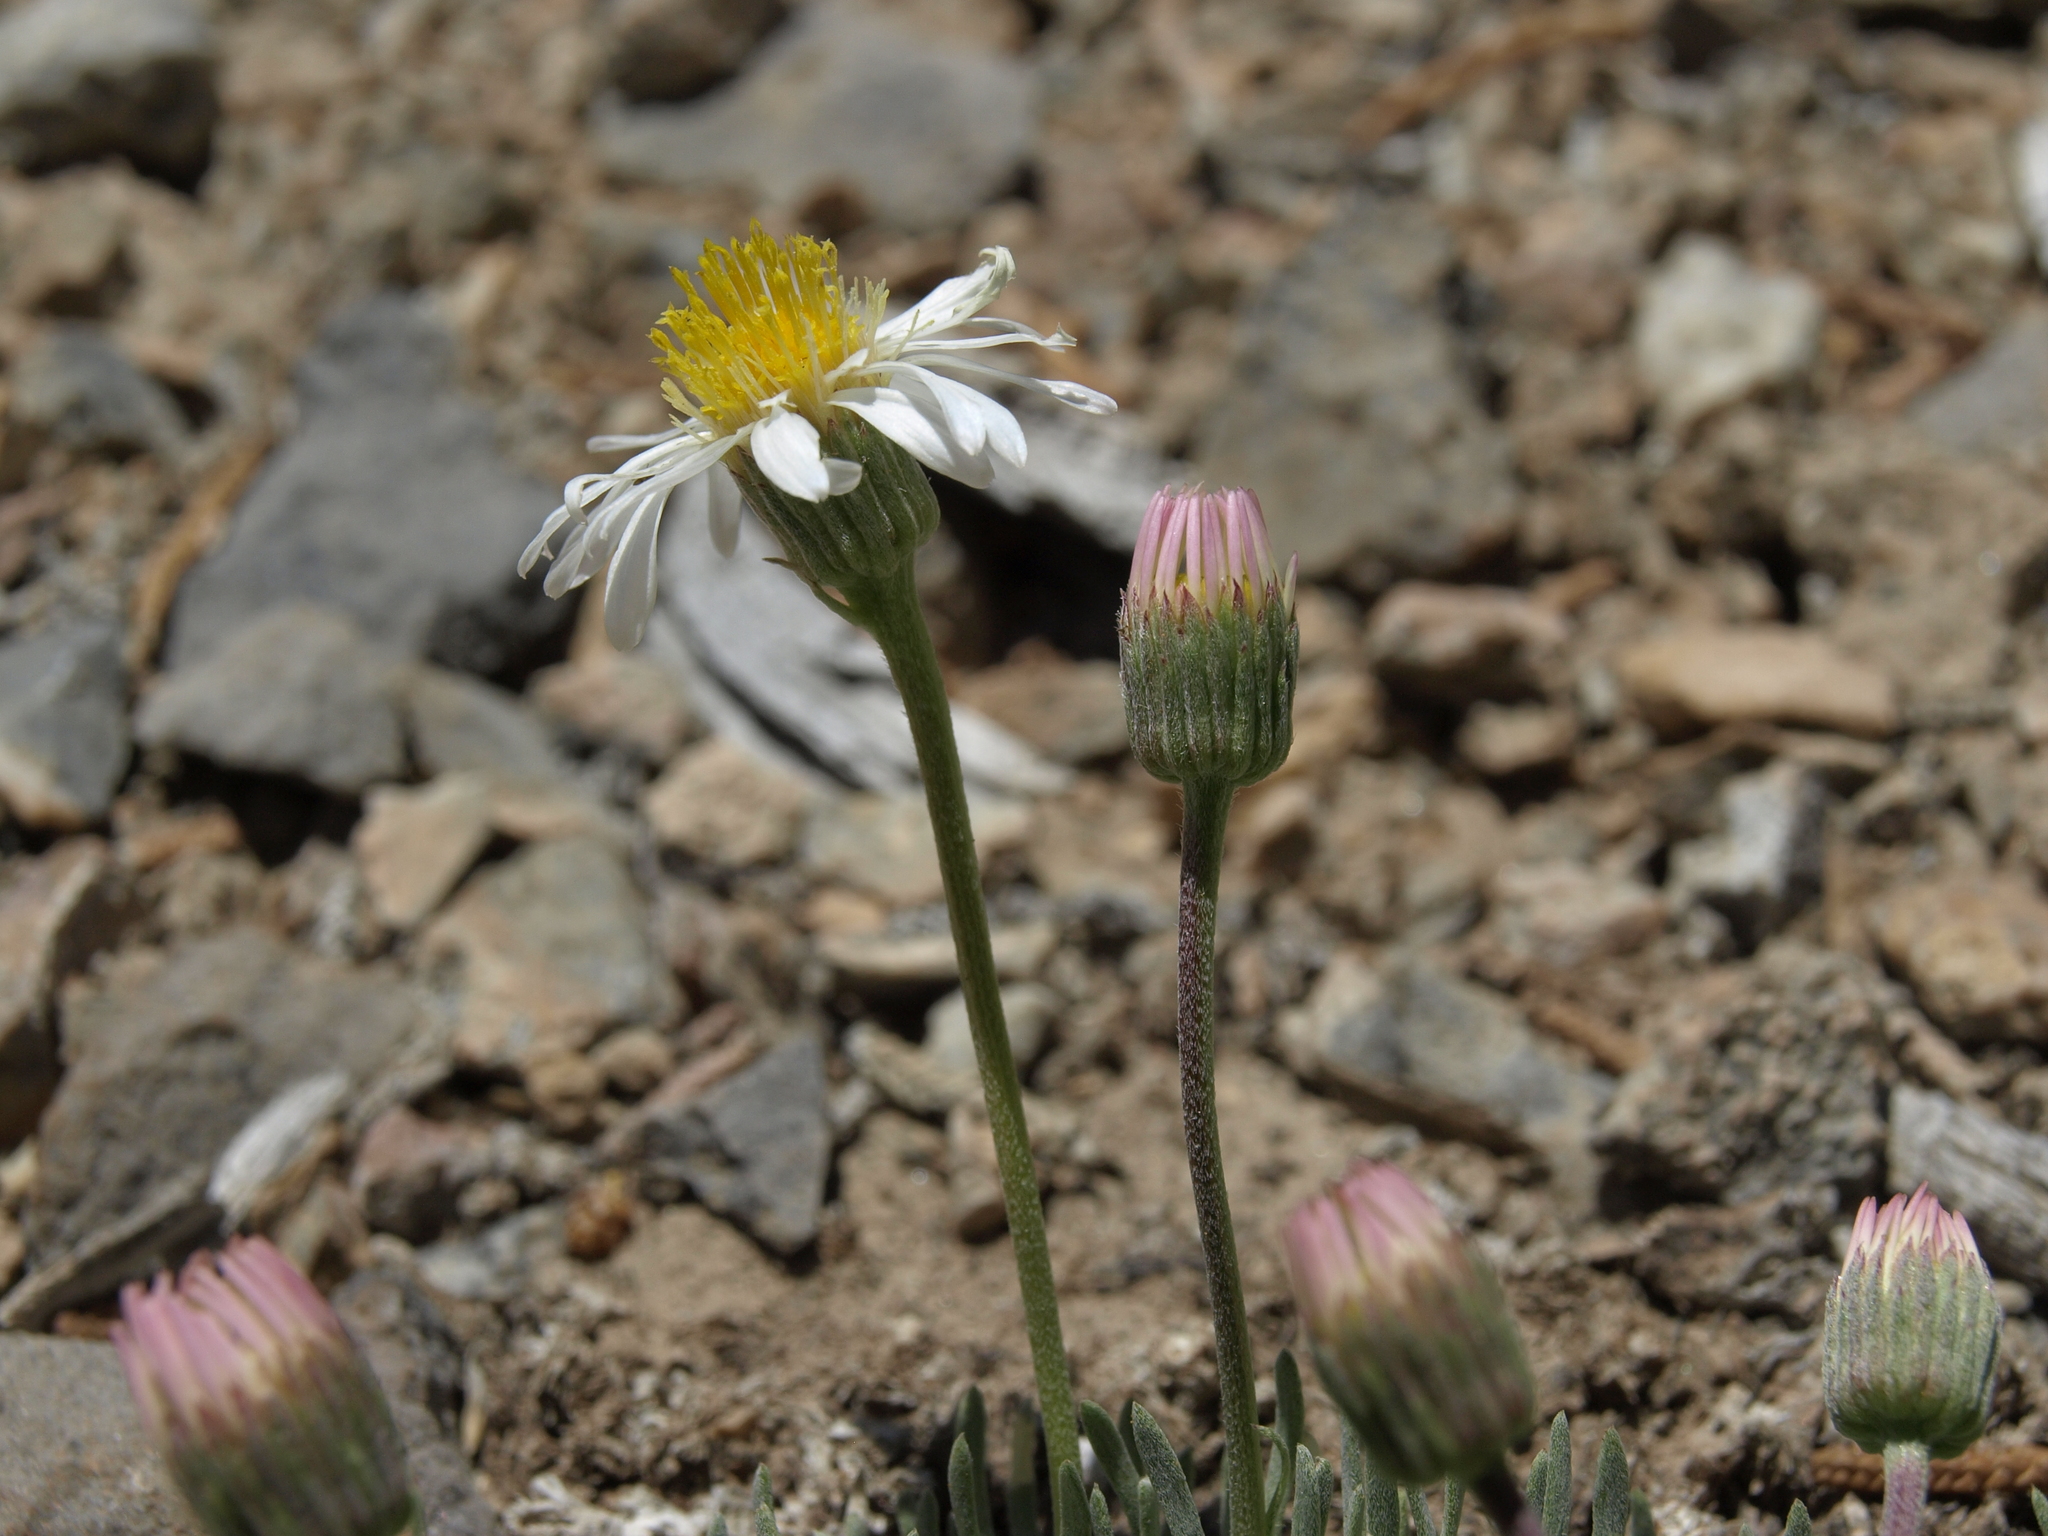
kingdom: Plantae
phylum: Tracheophyta
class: Magnoliopsida
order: Asterales
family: Asteraceae
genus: Erigeron
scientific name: Erigeron compactus
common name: Fern-leaf fleabane
